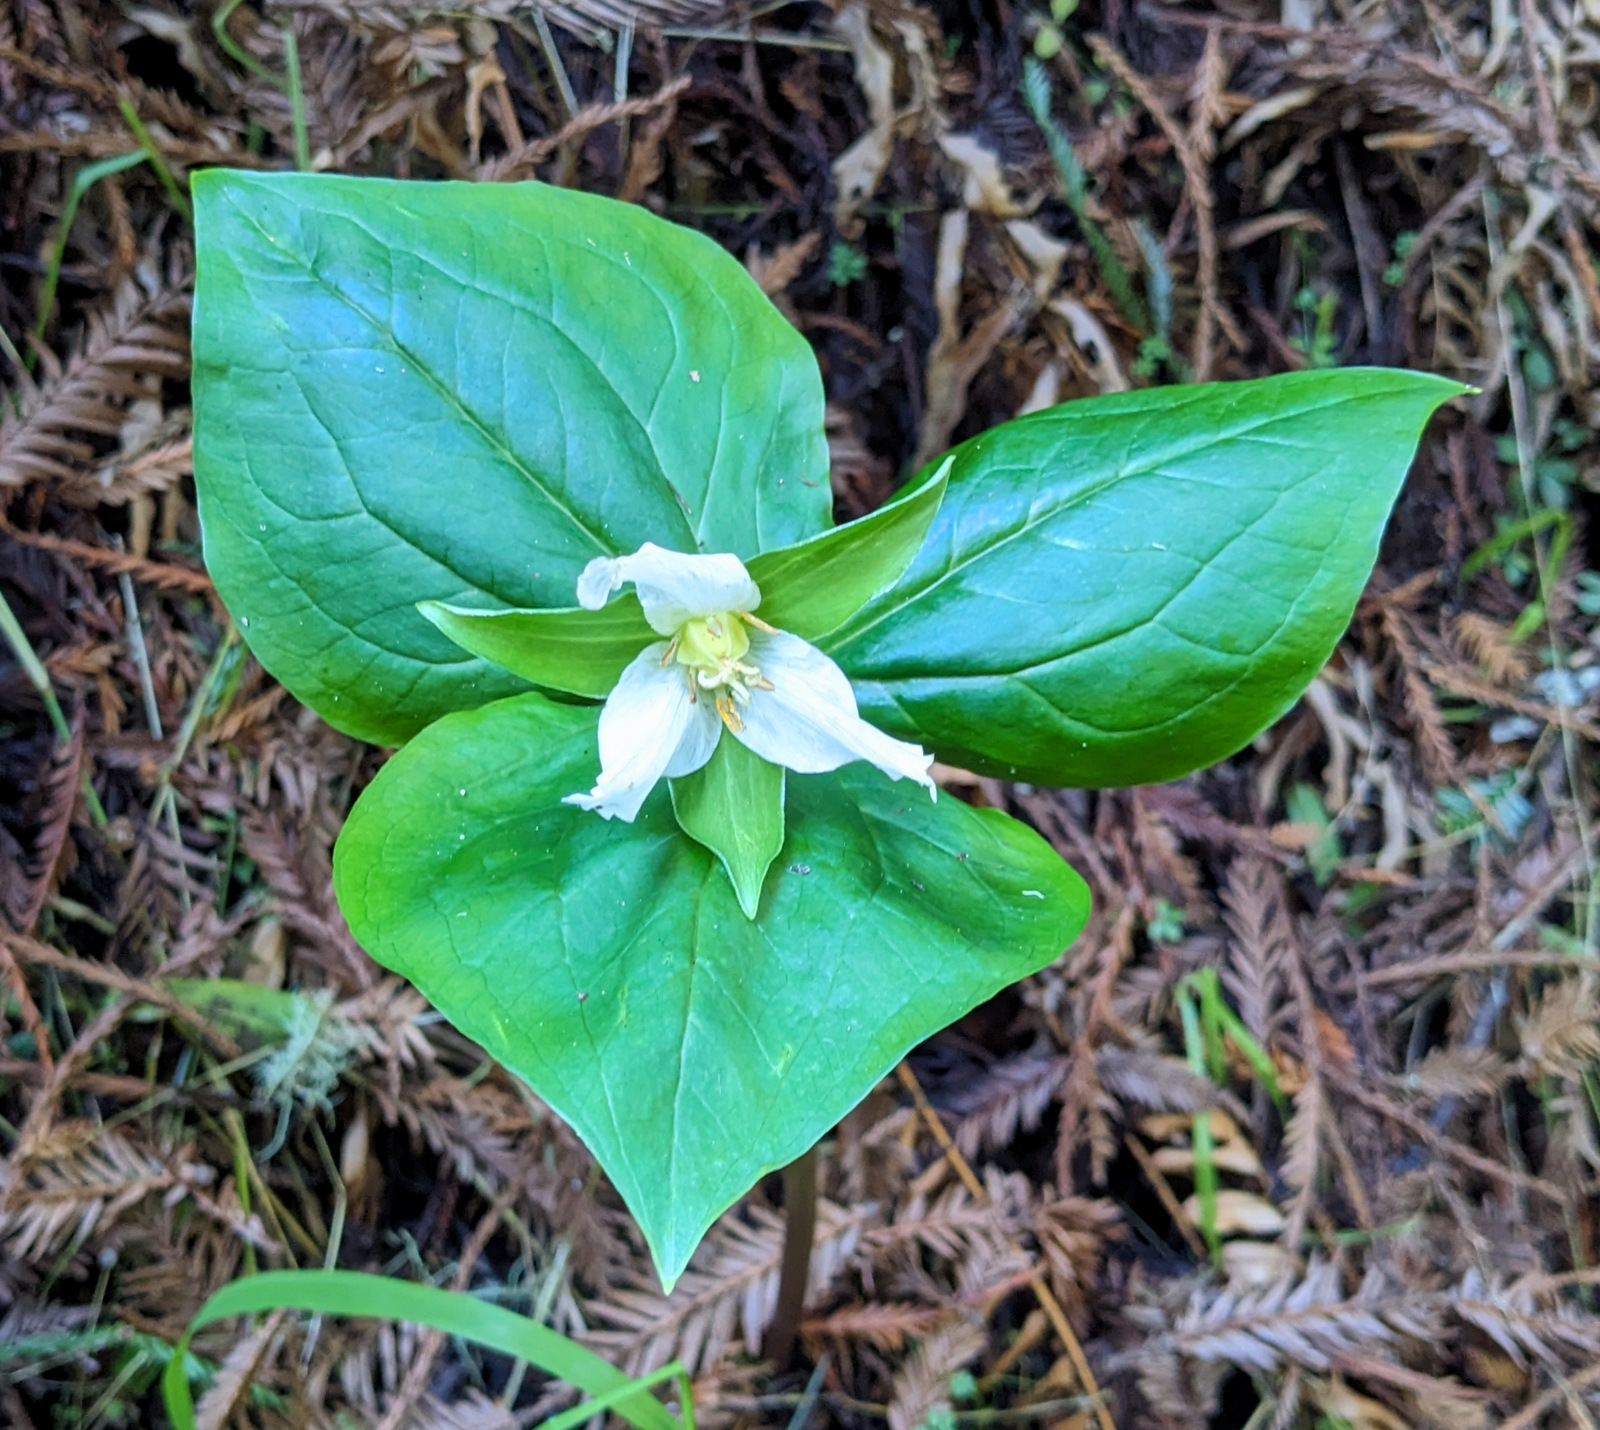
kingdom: Plantae
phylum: Tracheophyta
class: Liliopsida
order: Liliales
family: Melanthiaceae
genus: Trillium
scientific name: Trillium ovatum
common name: Pacific trillium
